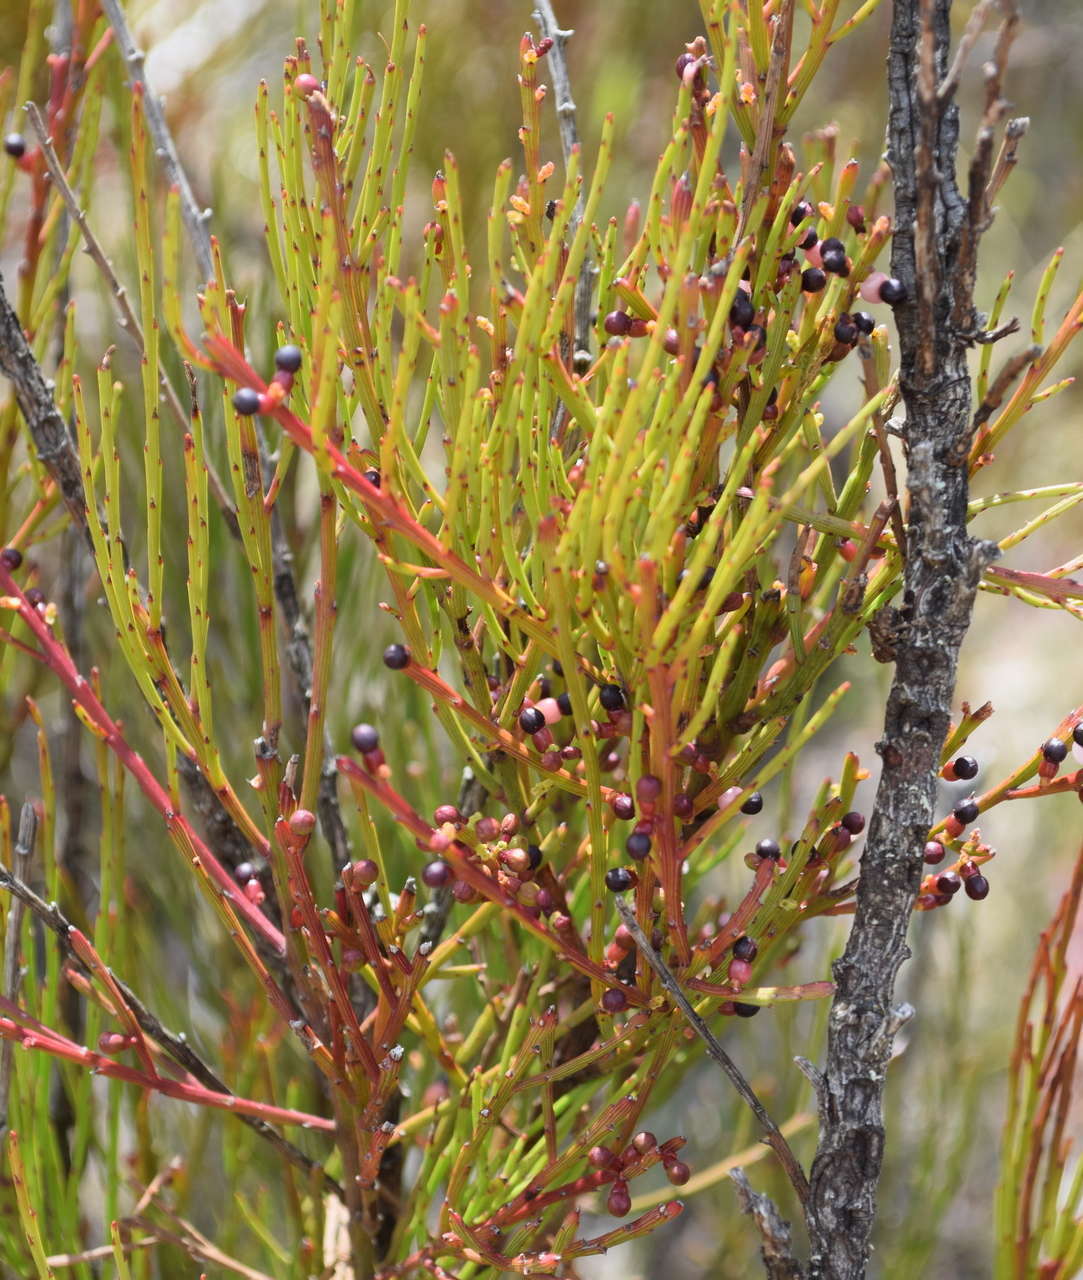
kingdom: Plantae
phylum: Tracheophyta
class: Magnoliopsida
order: Santalales
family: Santalaceae
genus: Exocarpos
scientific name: Exocarpos syrticola
